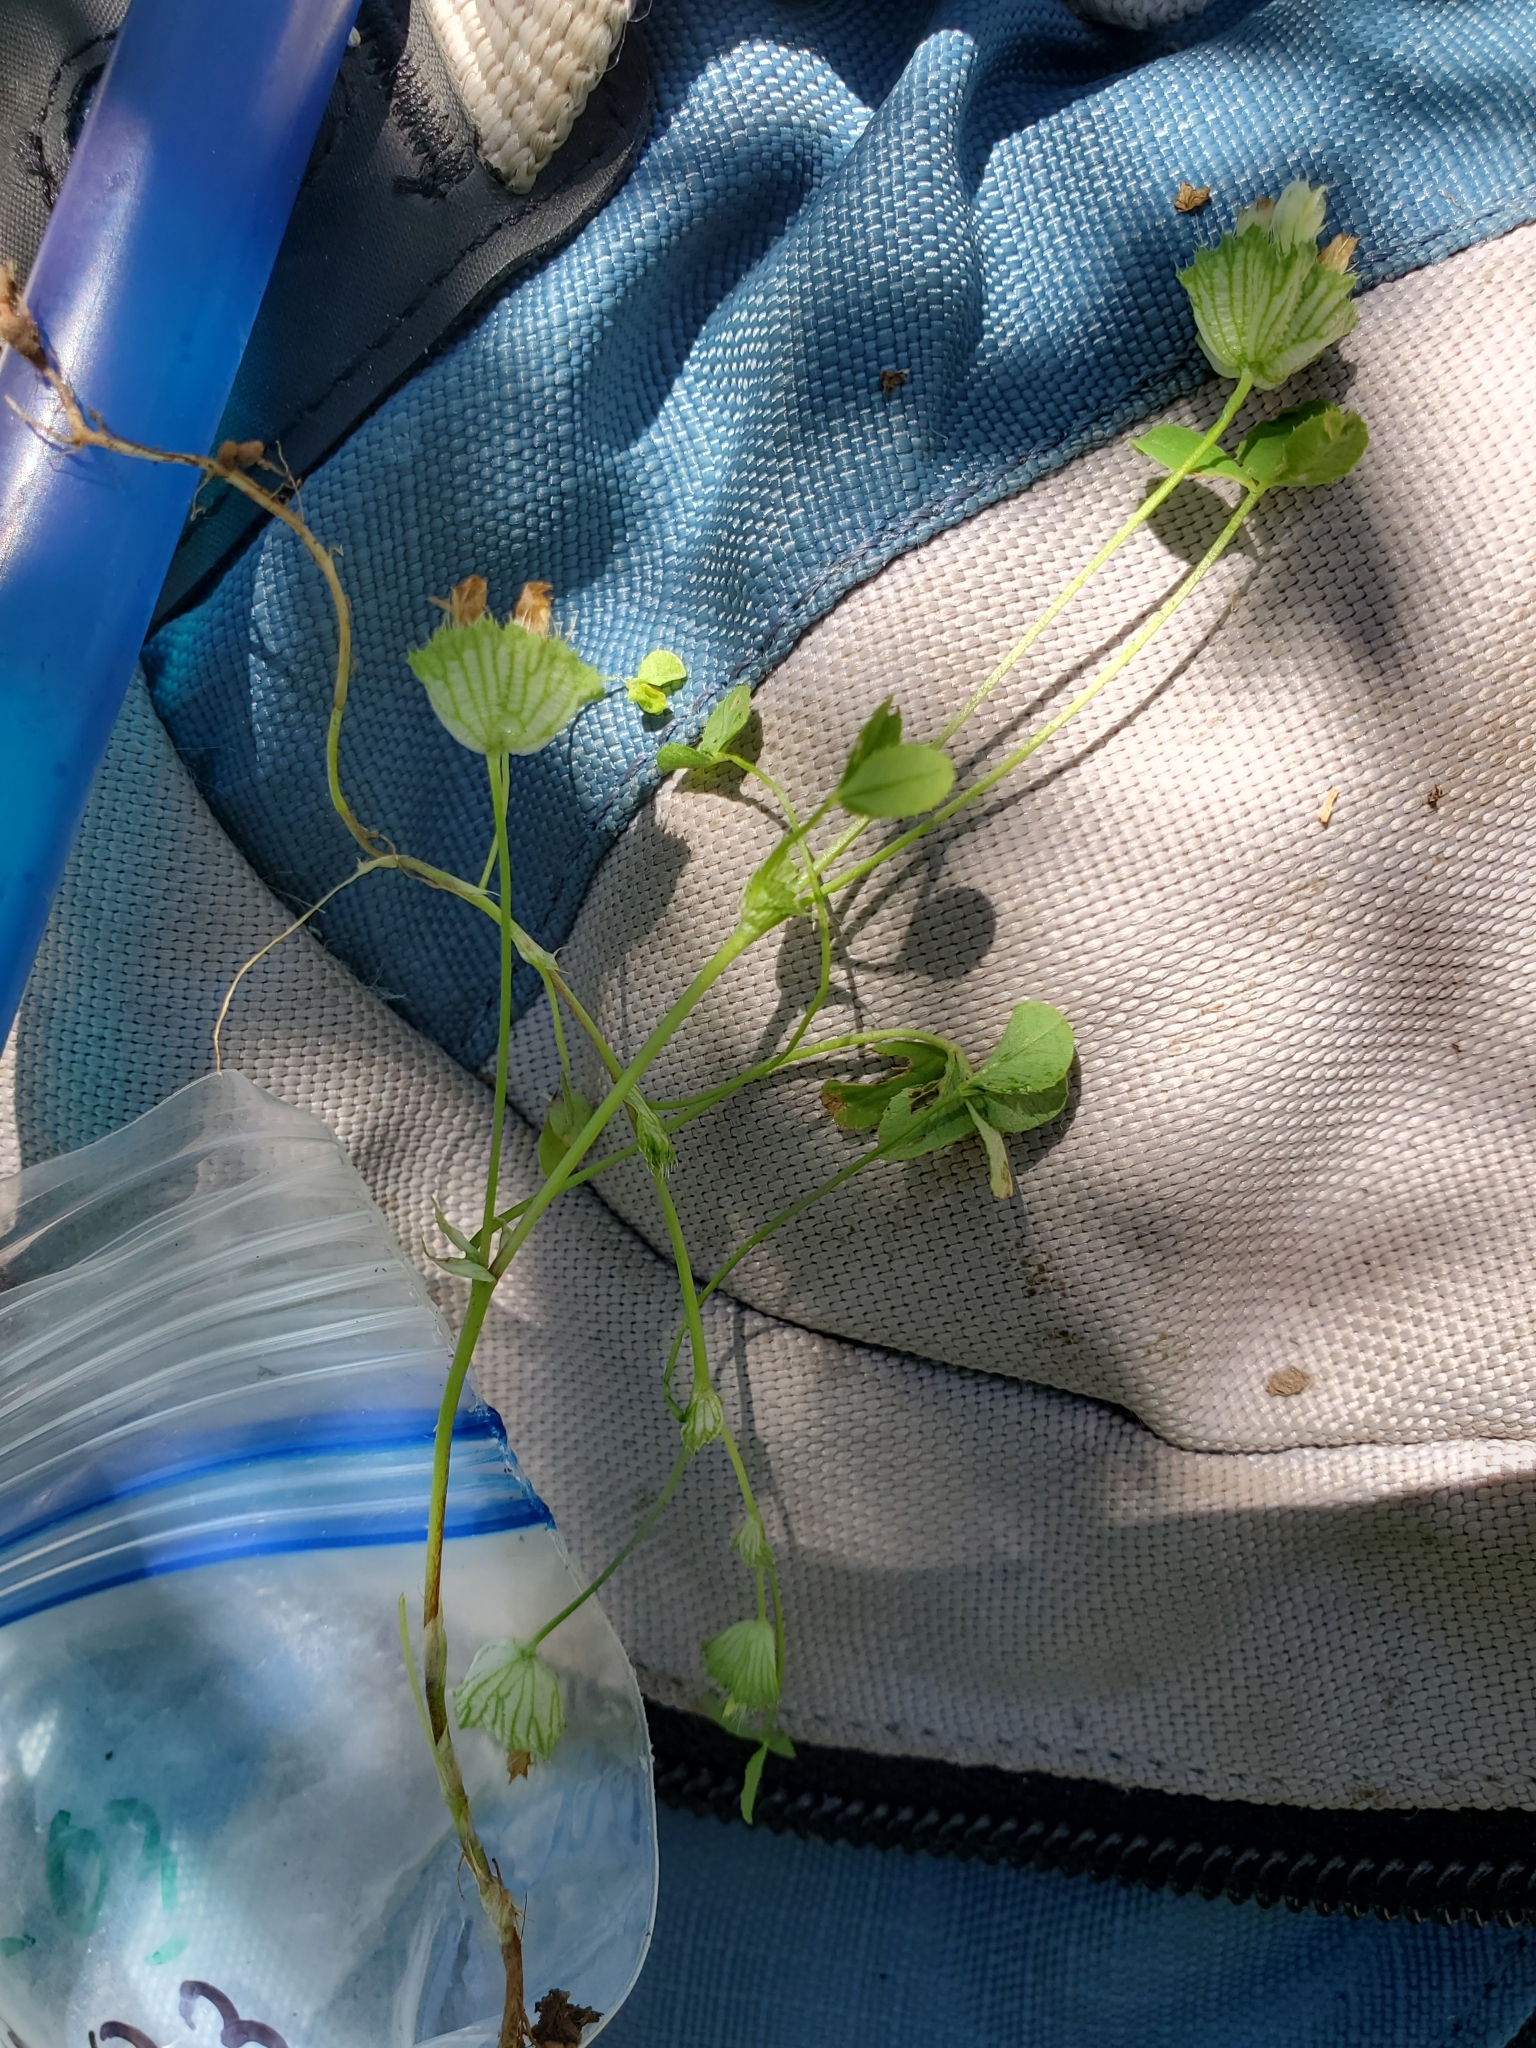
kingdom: Plantae
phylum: Tracheophyta
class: Magnoliopsida
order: Fabales
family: Fabaceae
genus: Trifolium
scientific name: Trifolium cyathiferum
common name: Bowl clover
